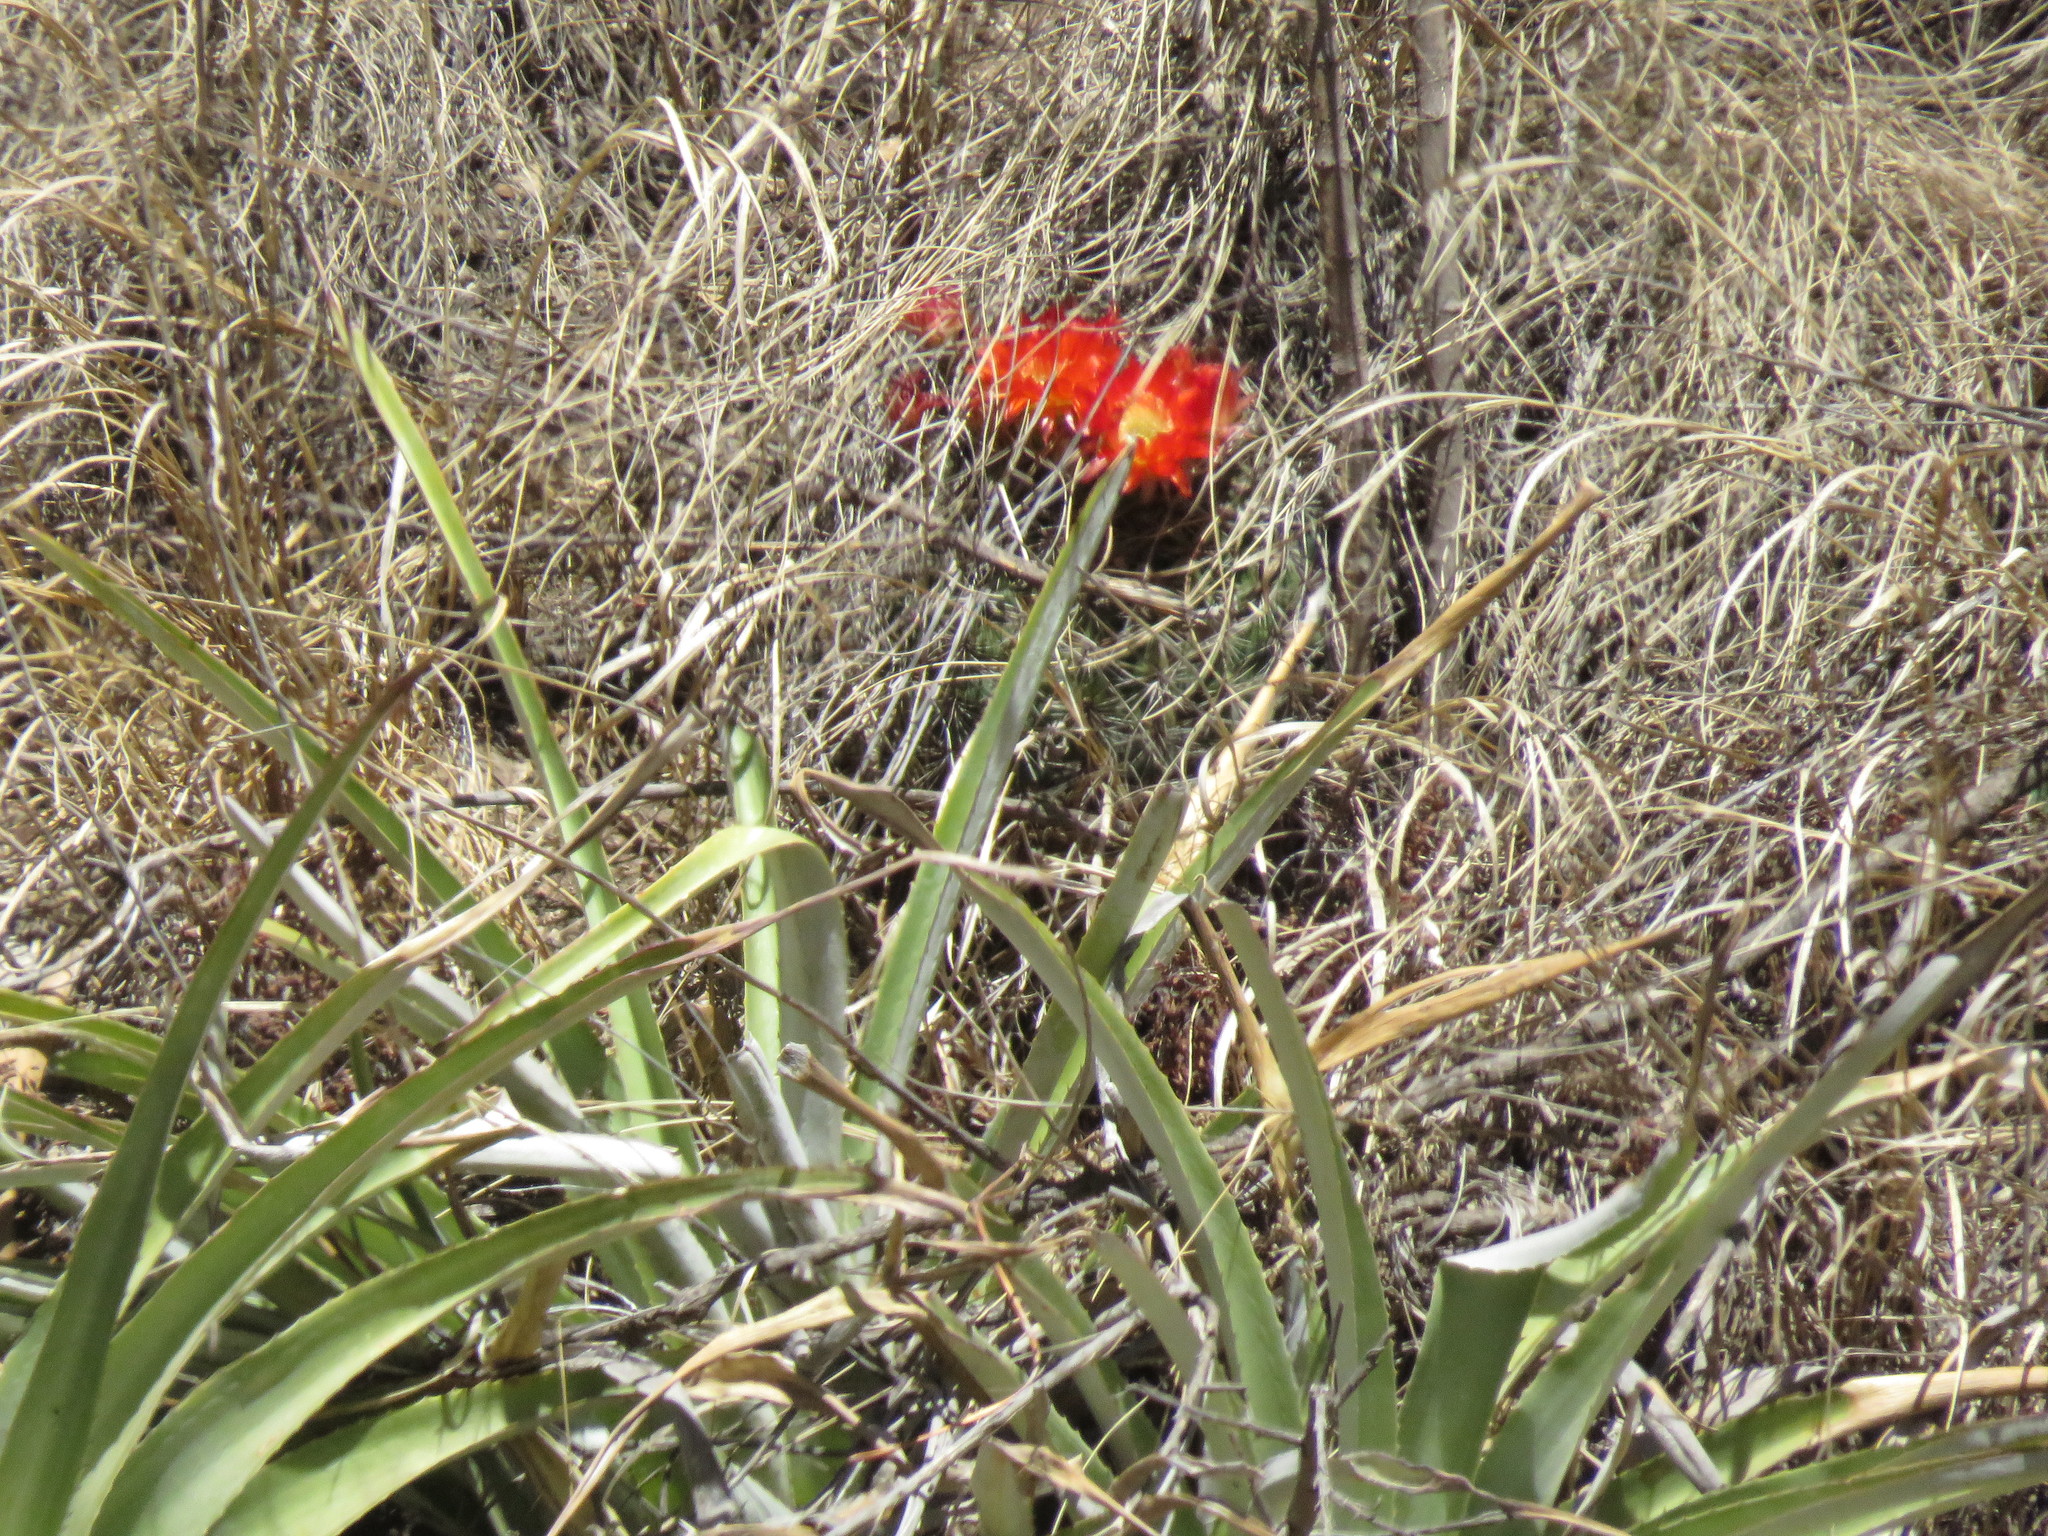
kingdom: Plantae
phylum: Tracheophyta
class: Magnoliopsida
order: Caryophyllales
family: Cactaceae
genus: Soehrensia
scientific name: Soehrensia bruchii
